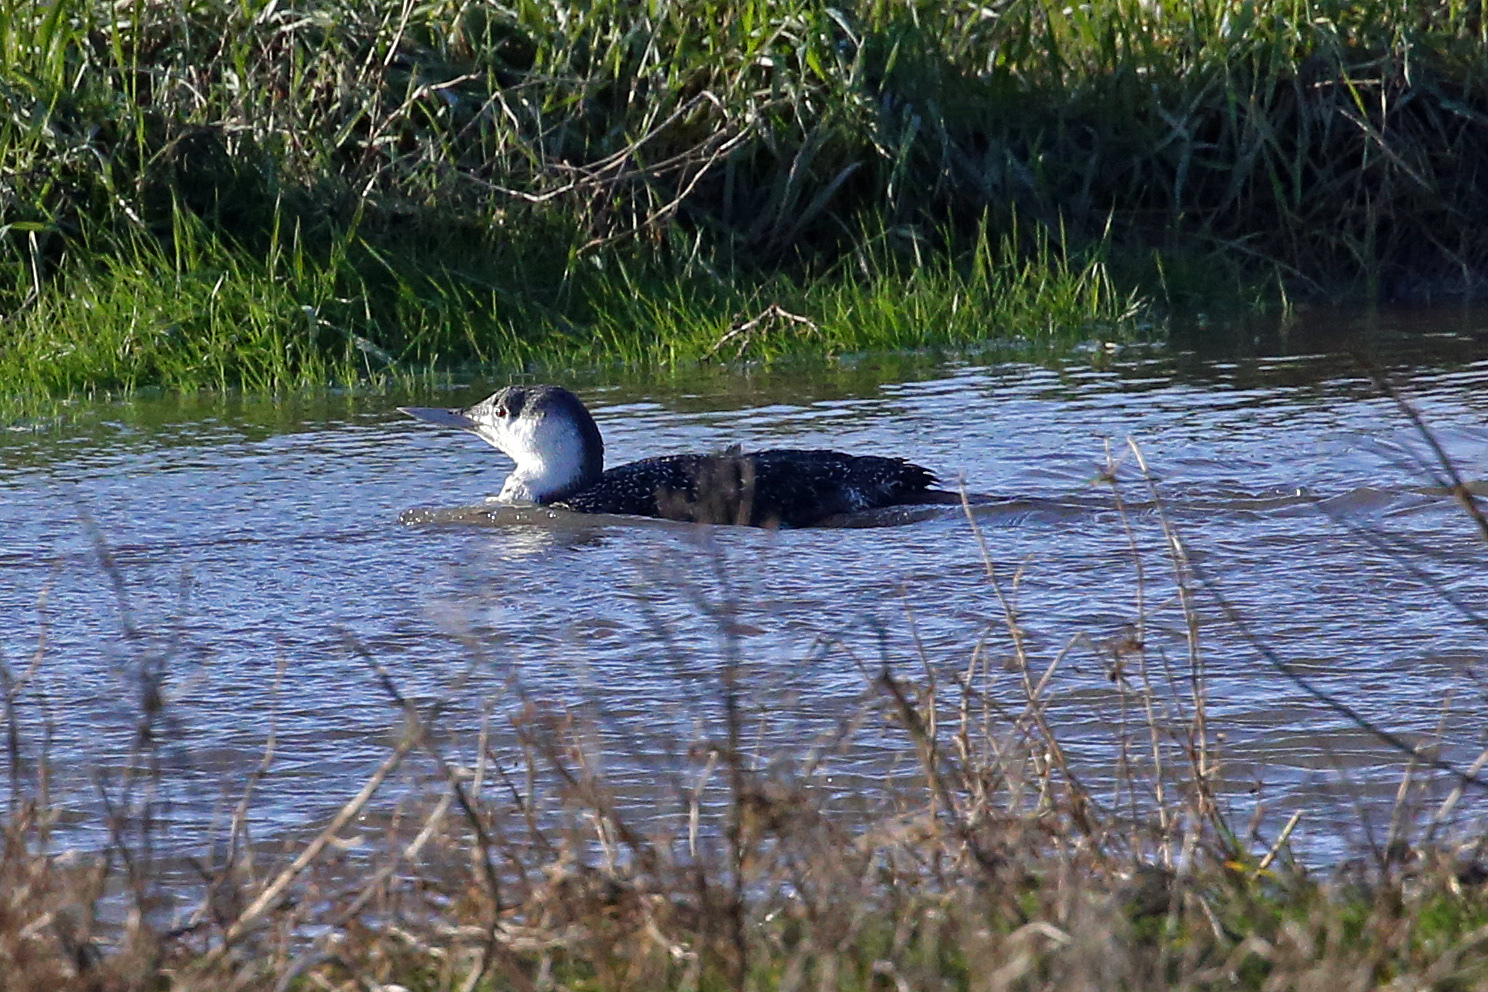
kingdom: Animalia
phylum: Chordata
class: Aves
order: Gaviiformes
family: Gaviidae
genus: Gavia
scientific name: Gavia stellata
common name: Red-throated loon
